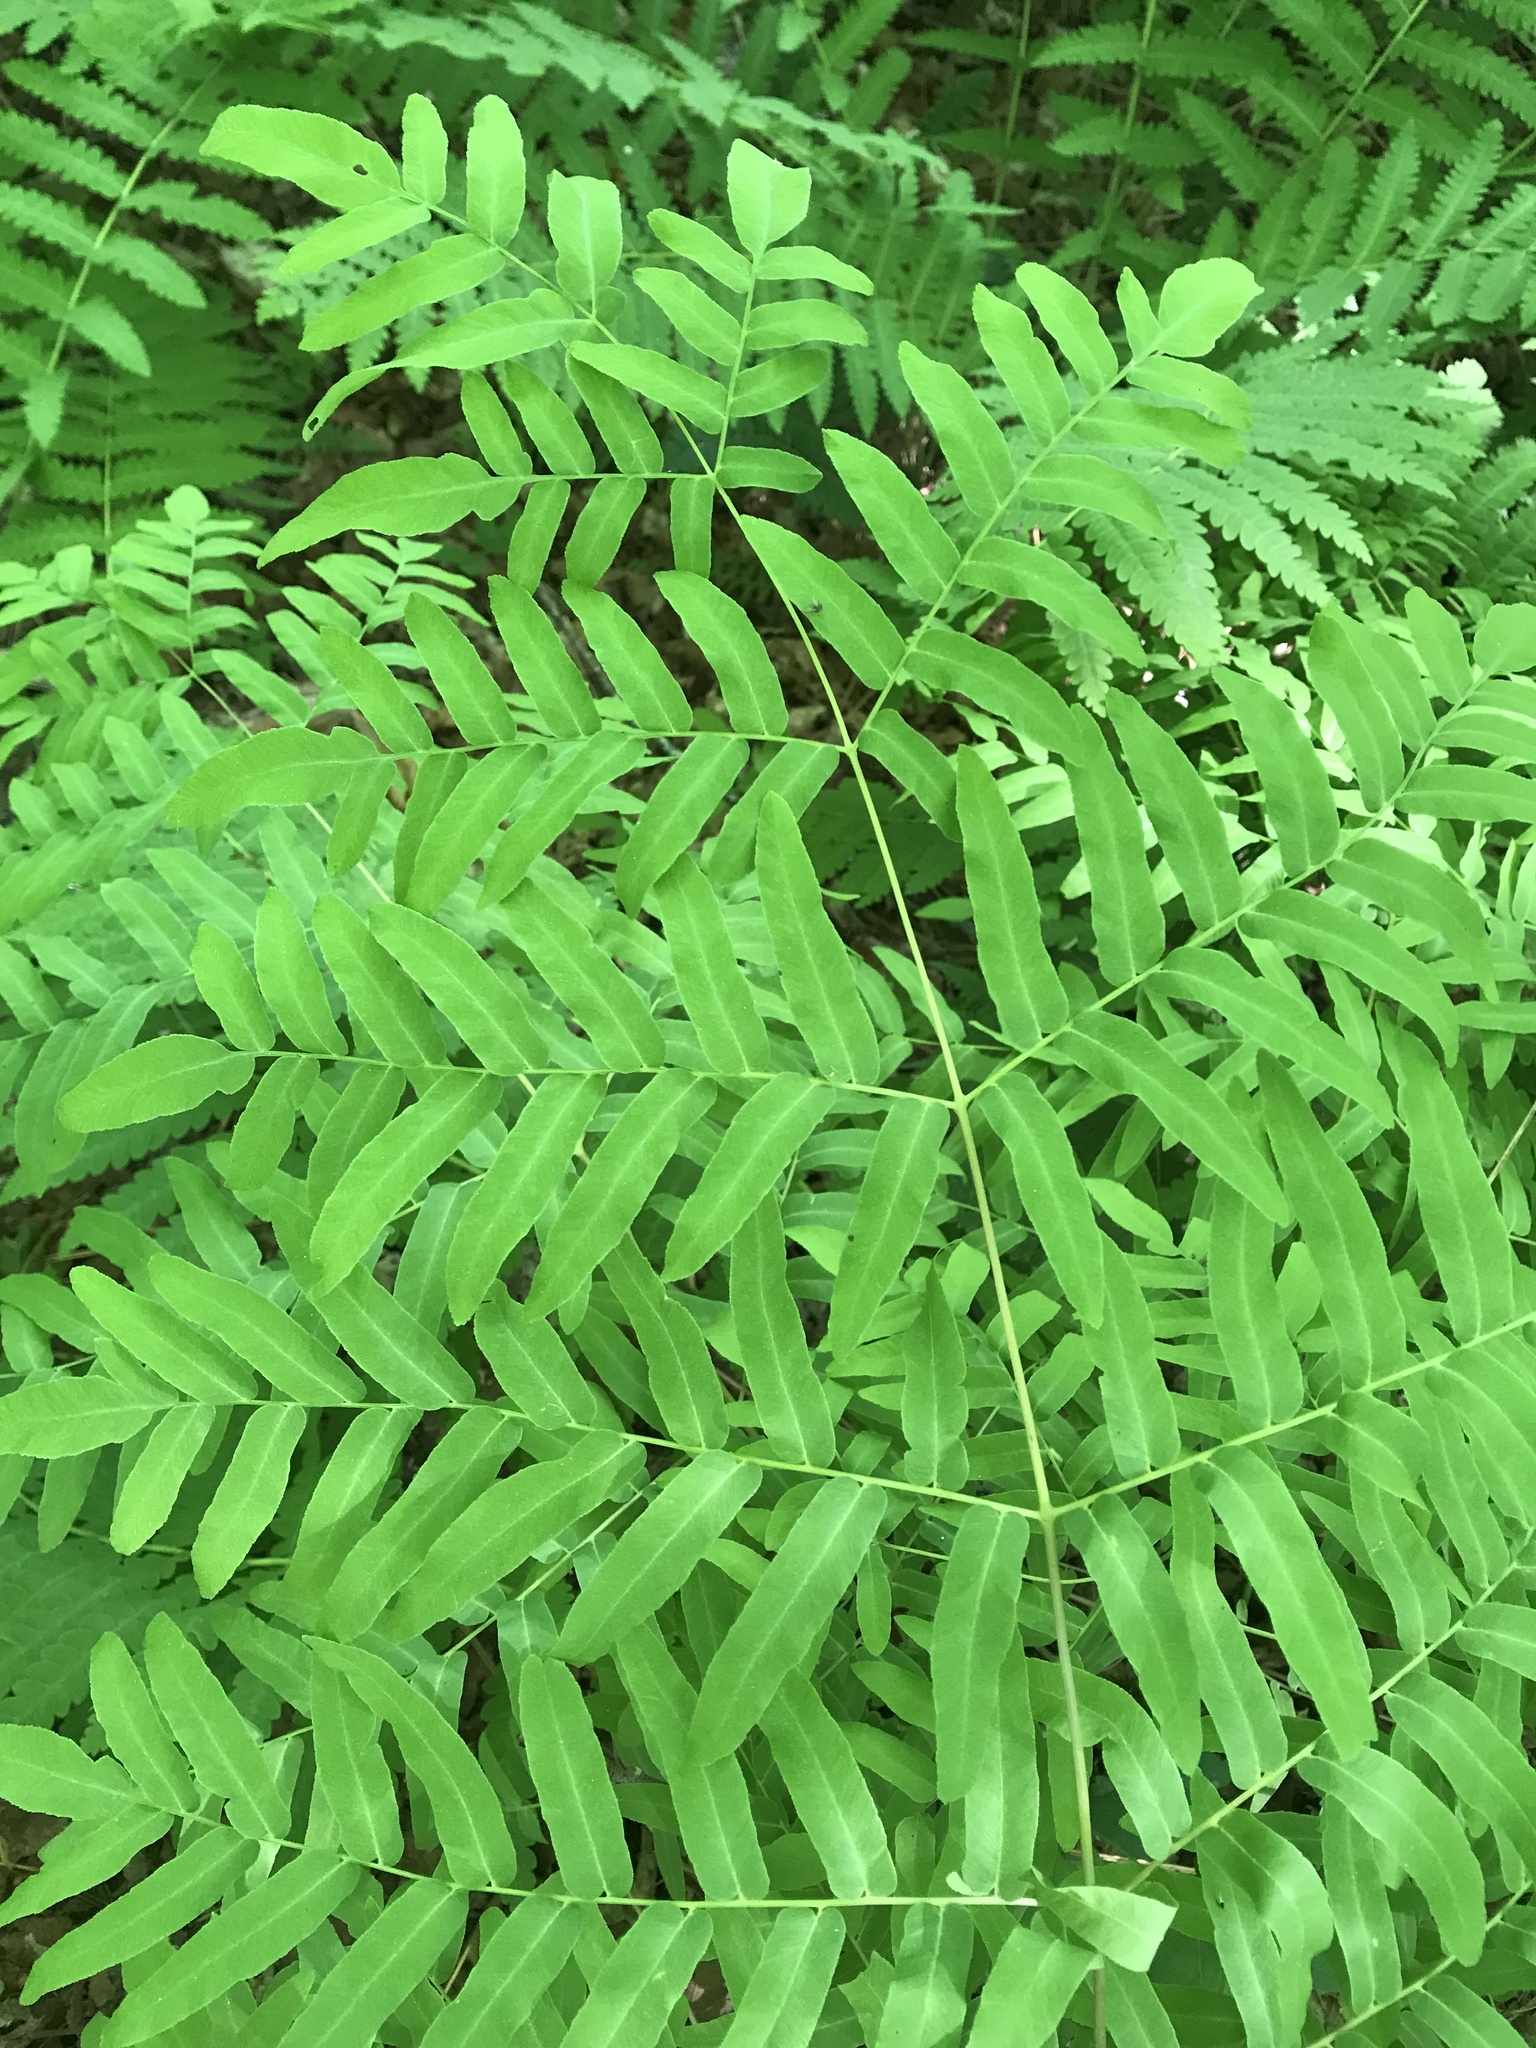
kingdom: Plantae
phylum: Tracheophyta
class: Polypodiopsida
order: Osmundales
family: Osmundaceae
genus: Osmunda
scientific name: Osmunda spectabilis
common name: American royal fern
